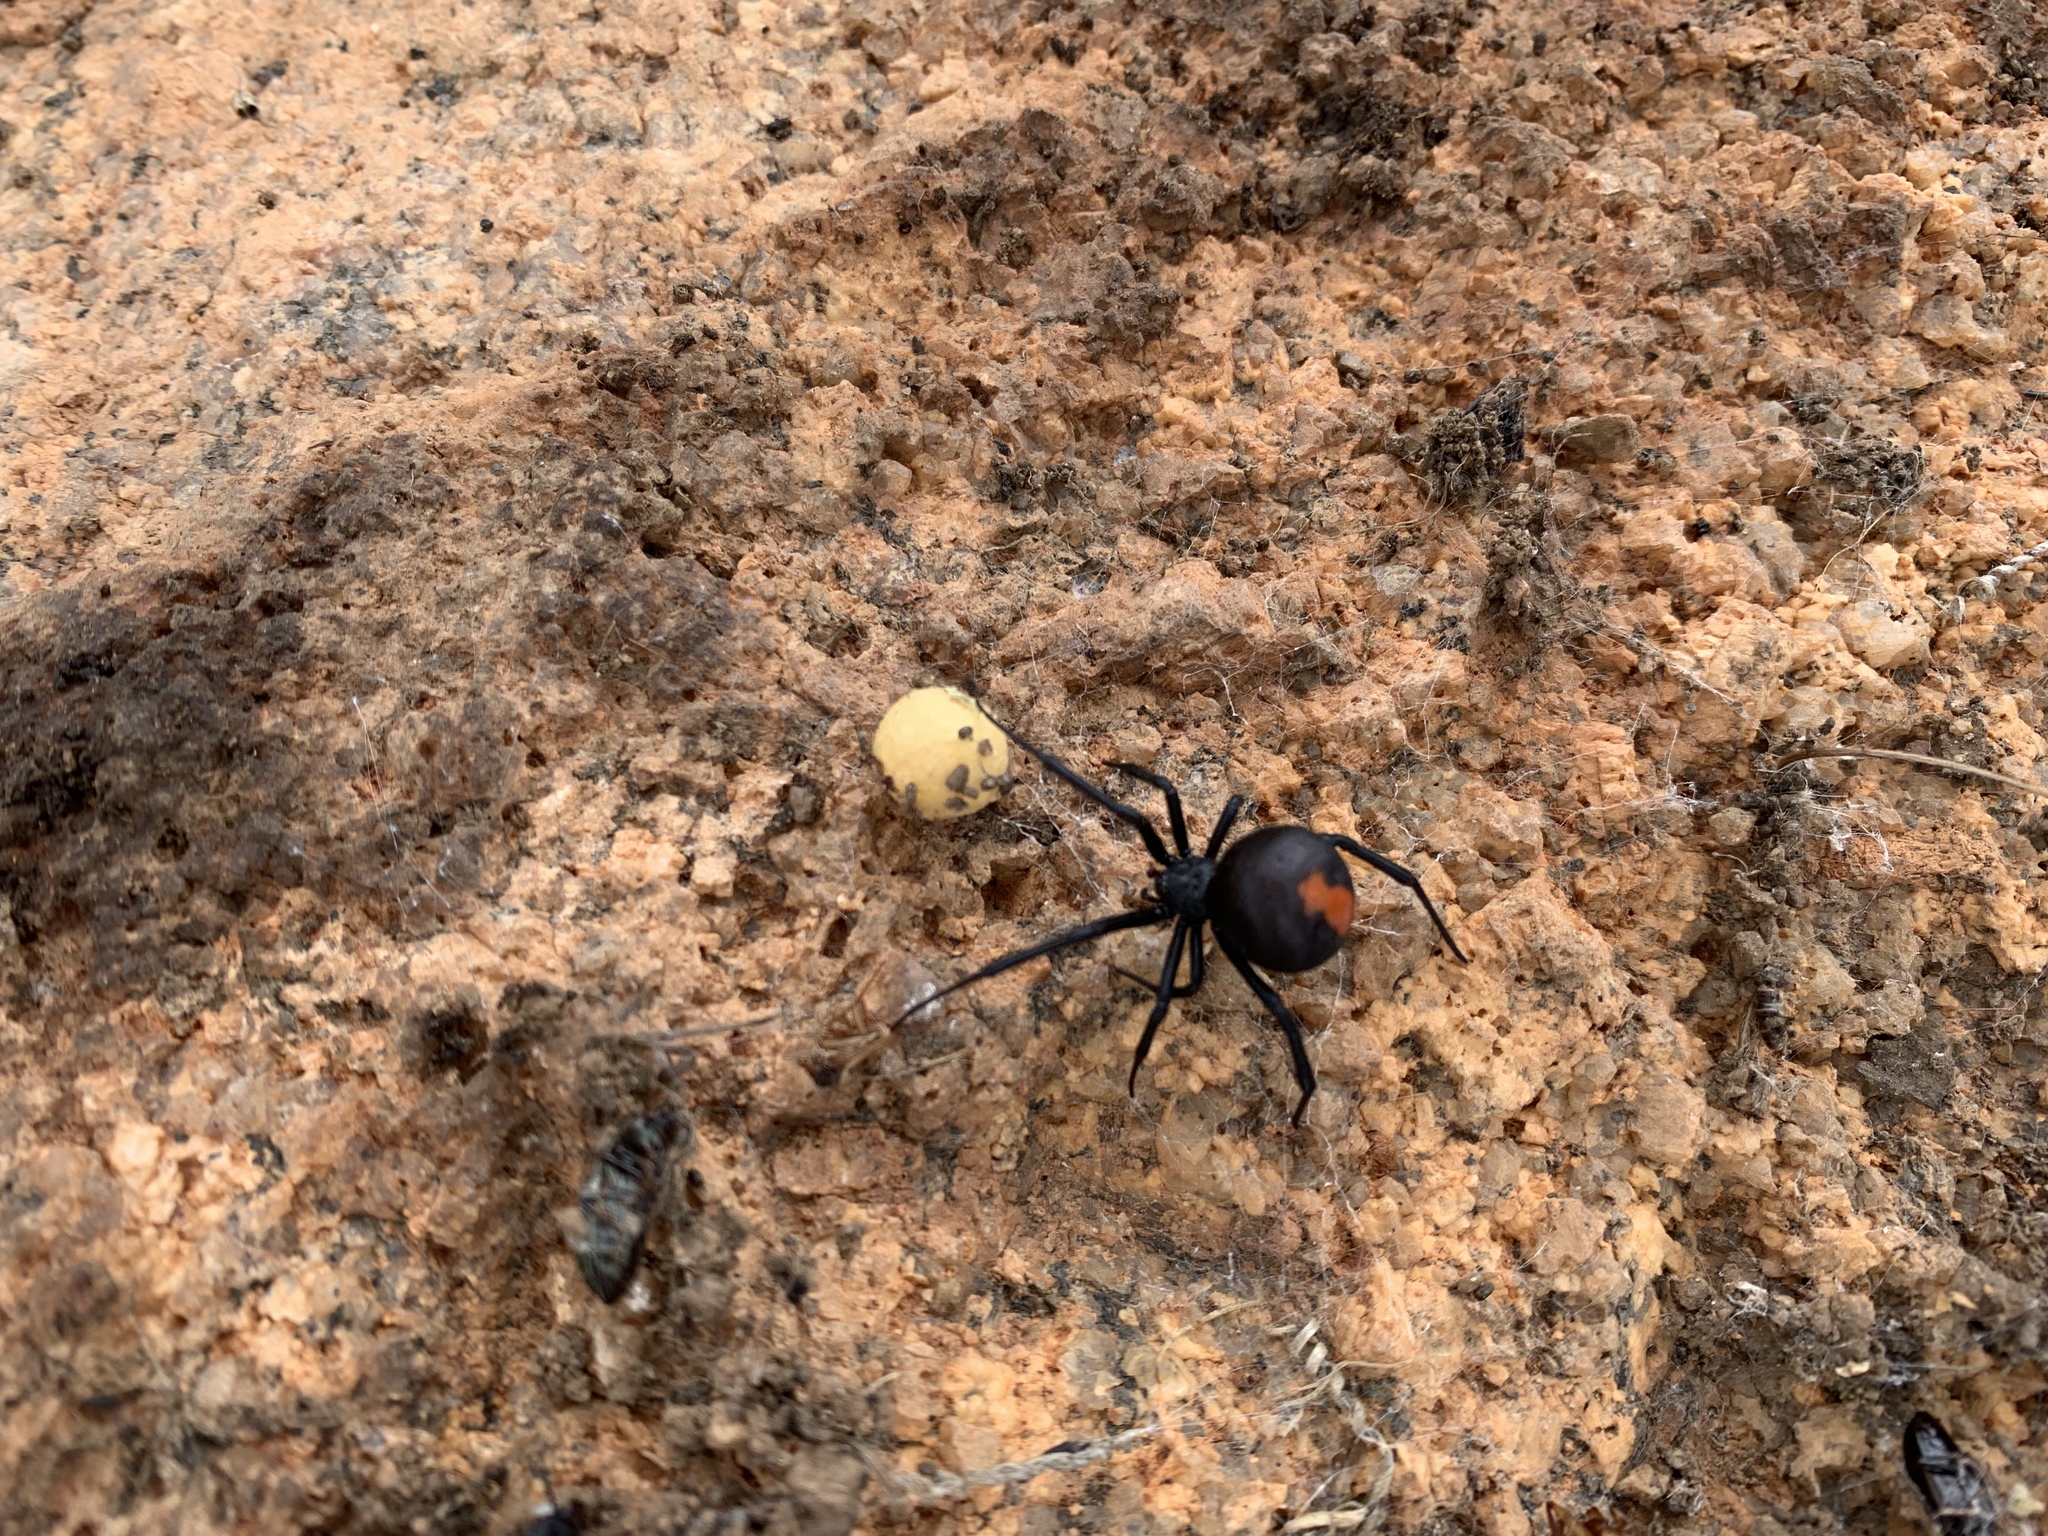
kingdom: Animalia
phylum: Arthropoda
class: Arachnida
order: Araneae
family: Theridiidae
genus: Latrodectus
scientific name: Latrodectus hasselti
